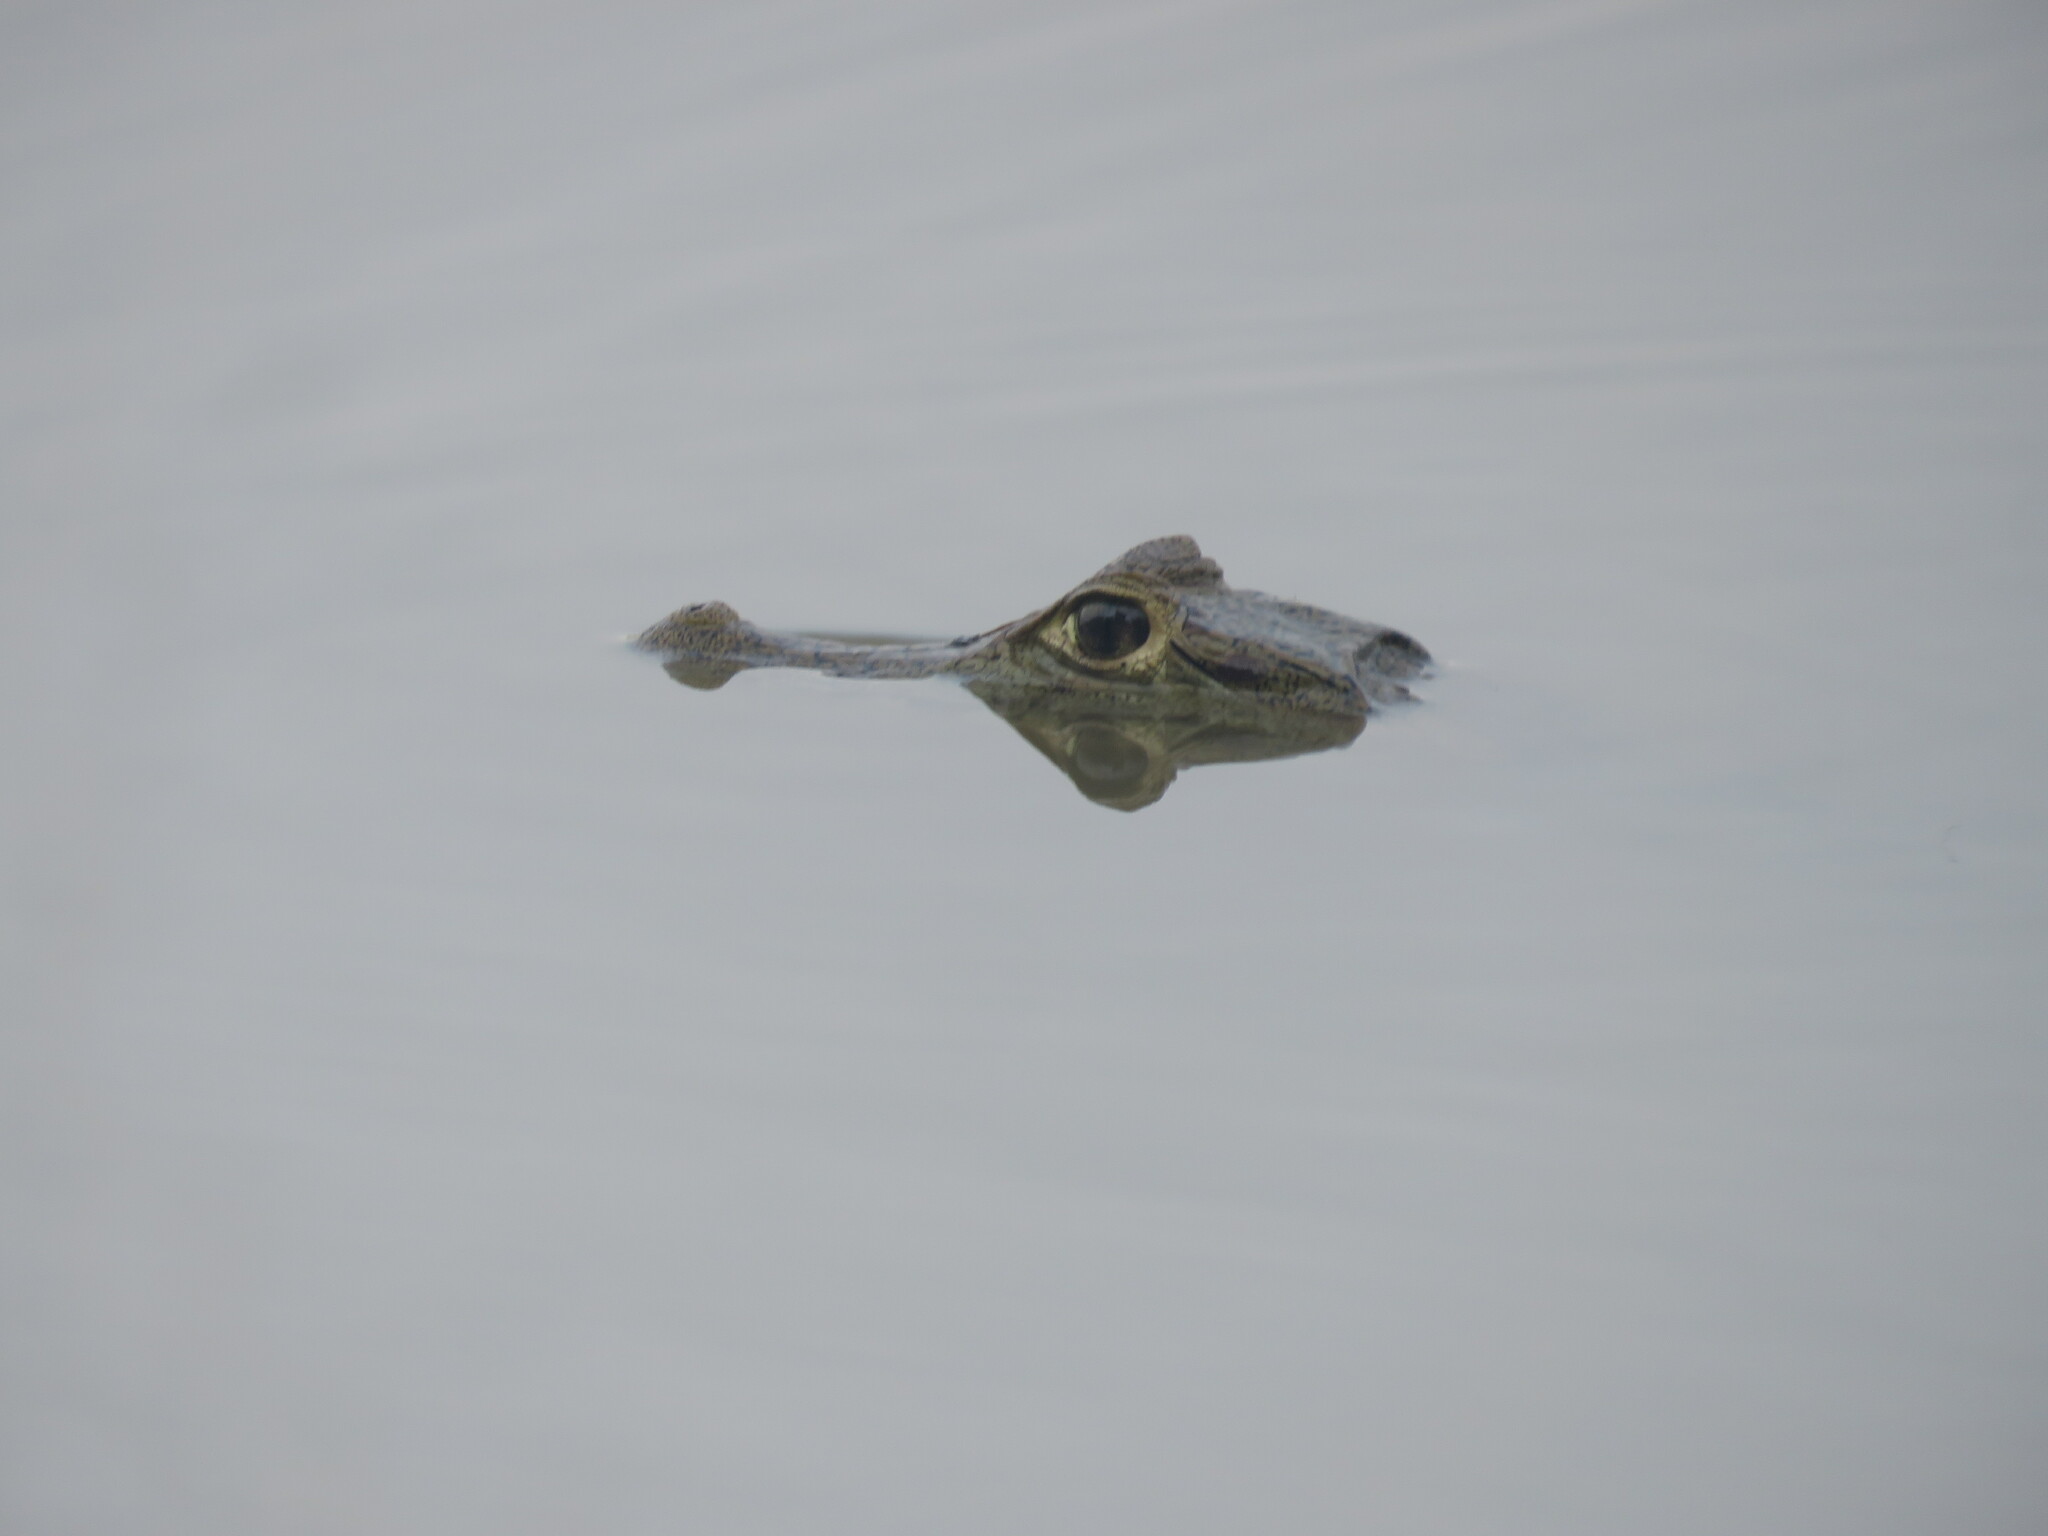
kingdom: Animalia
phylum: Chordata
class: Crocodylia
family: Alligatoridae
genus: Caiman
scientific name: Caiman yacare
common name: Yacare caiman
